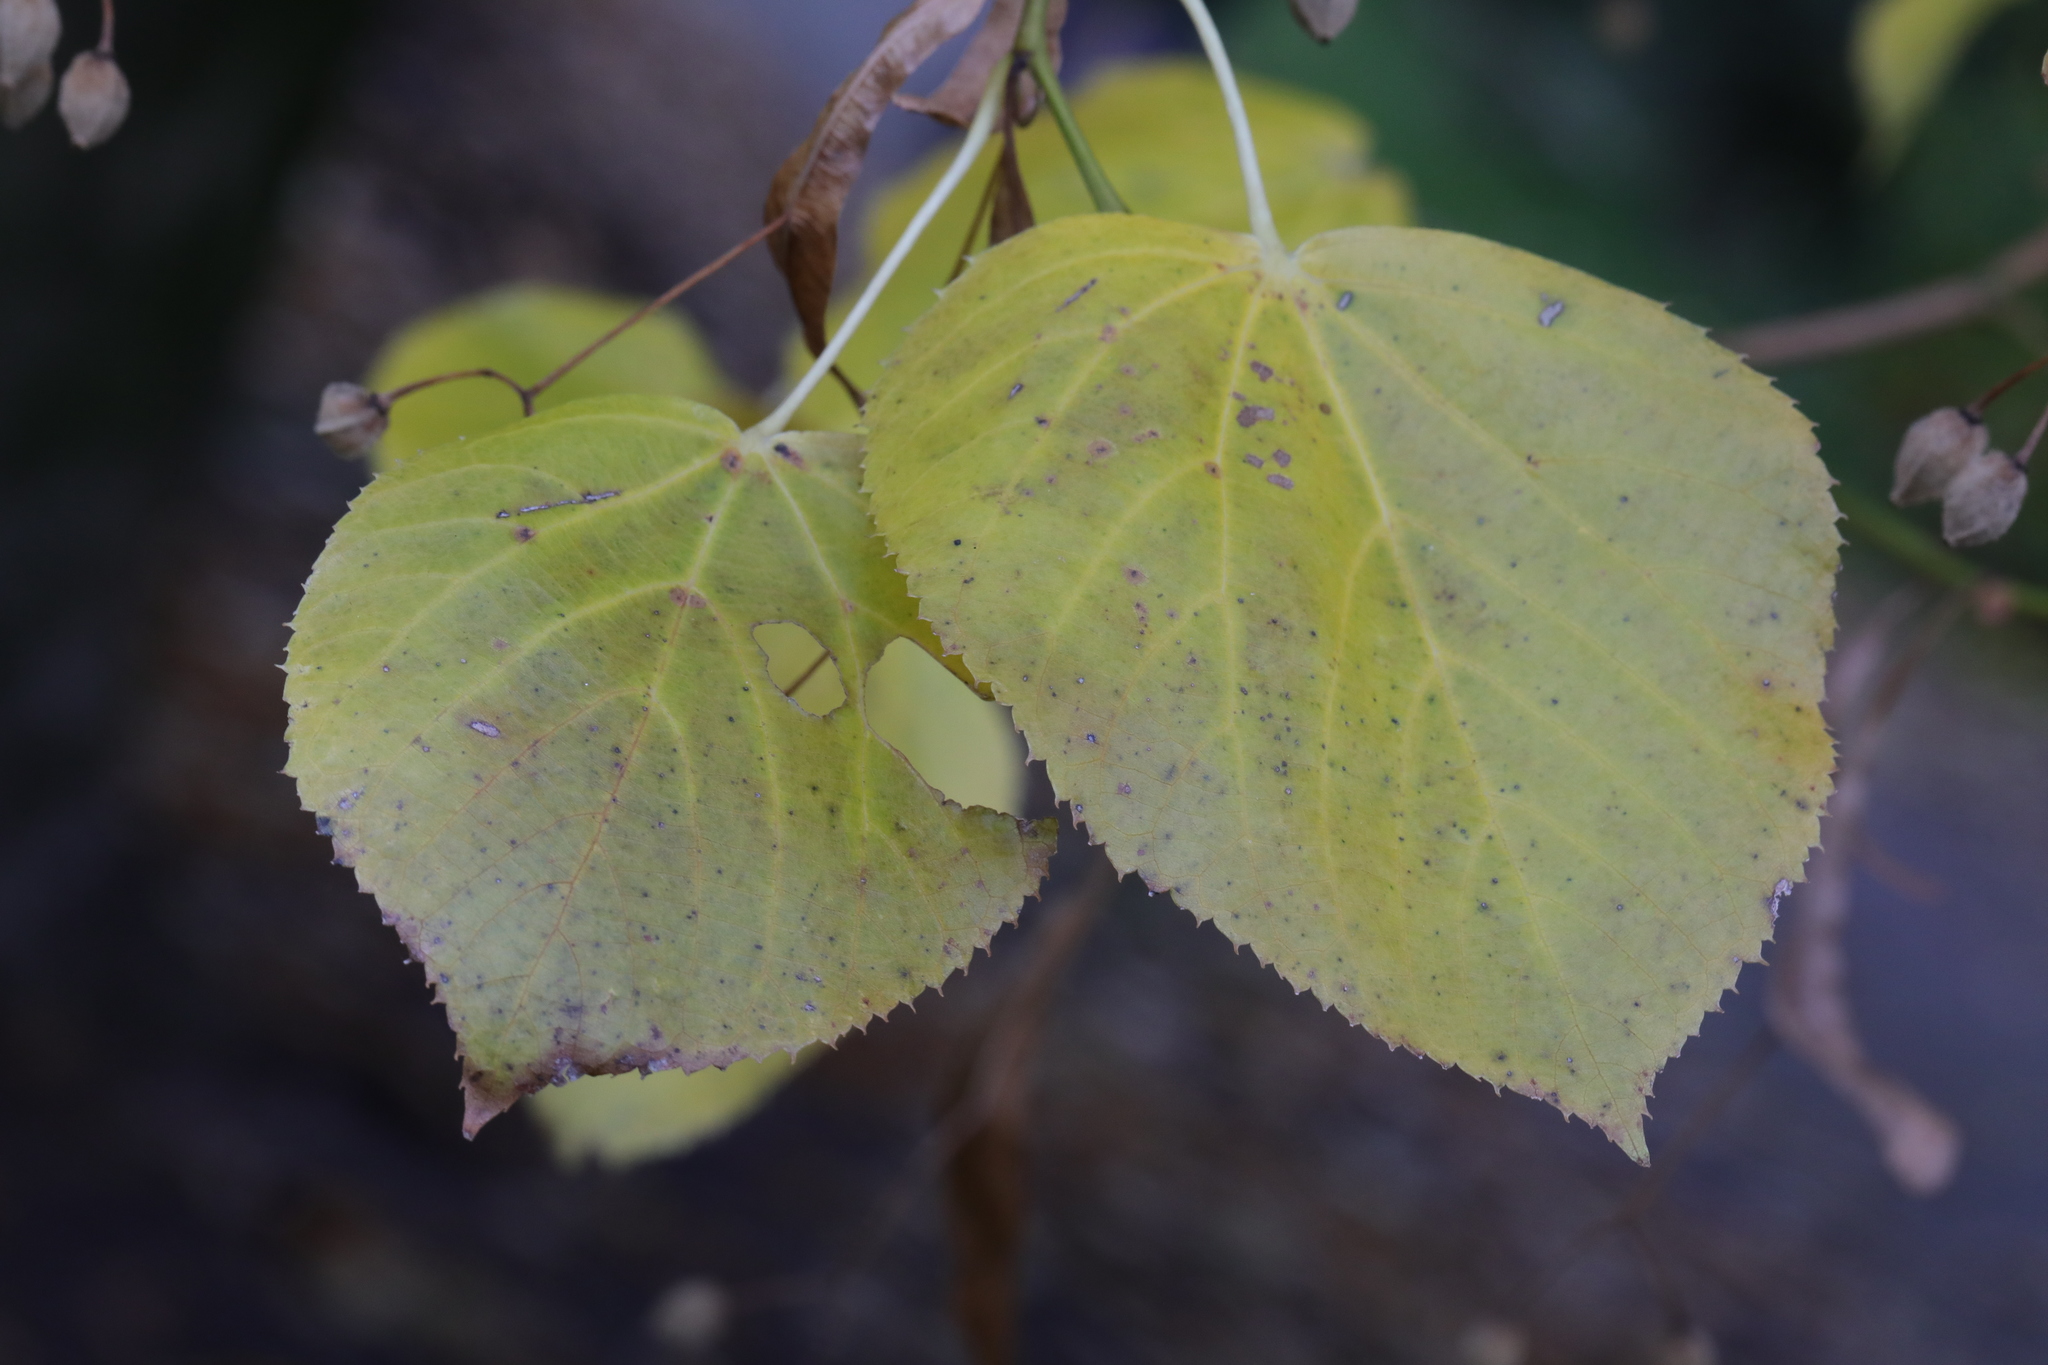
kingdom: Plantae
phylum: Tracheophyta
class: Magnoliopsida
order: Malvales
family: Malvaceae
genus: Tilia
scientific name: Tilia europaea
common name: European linden
